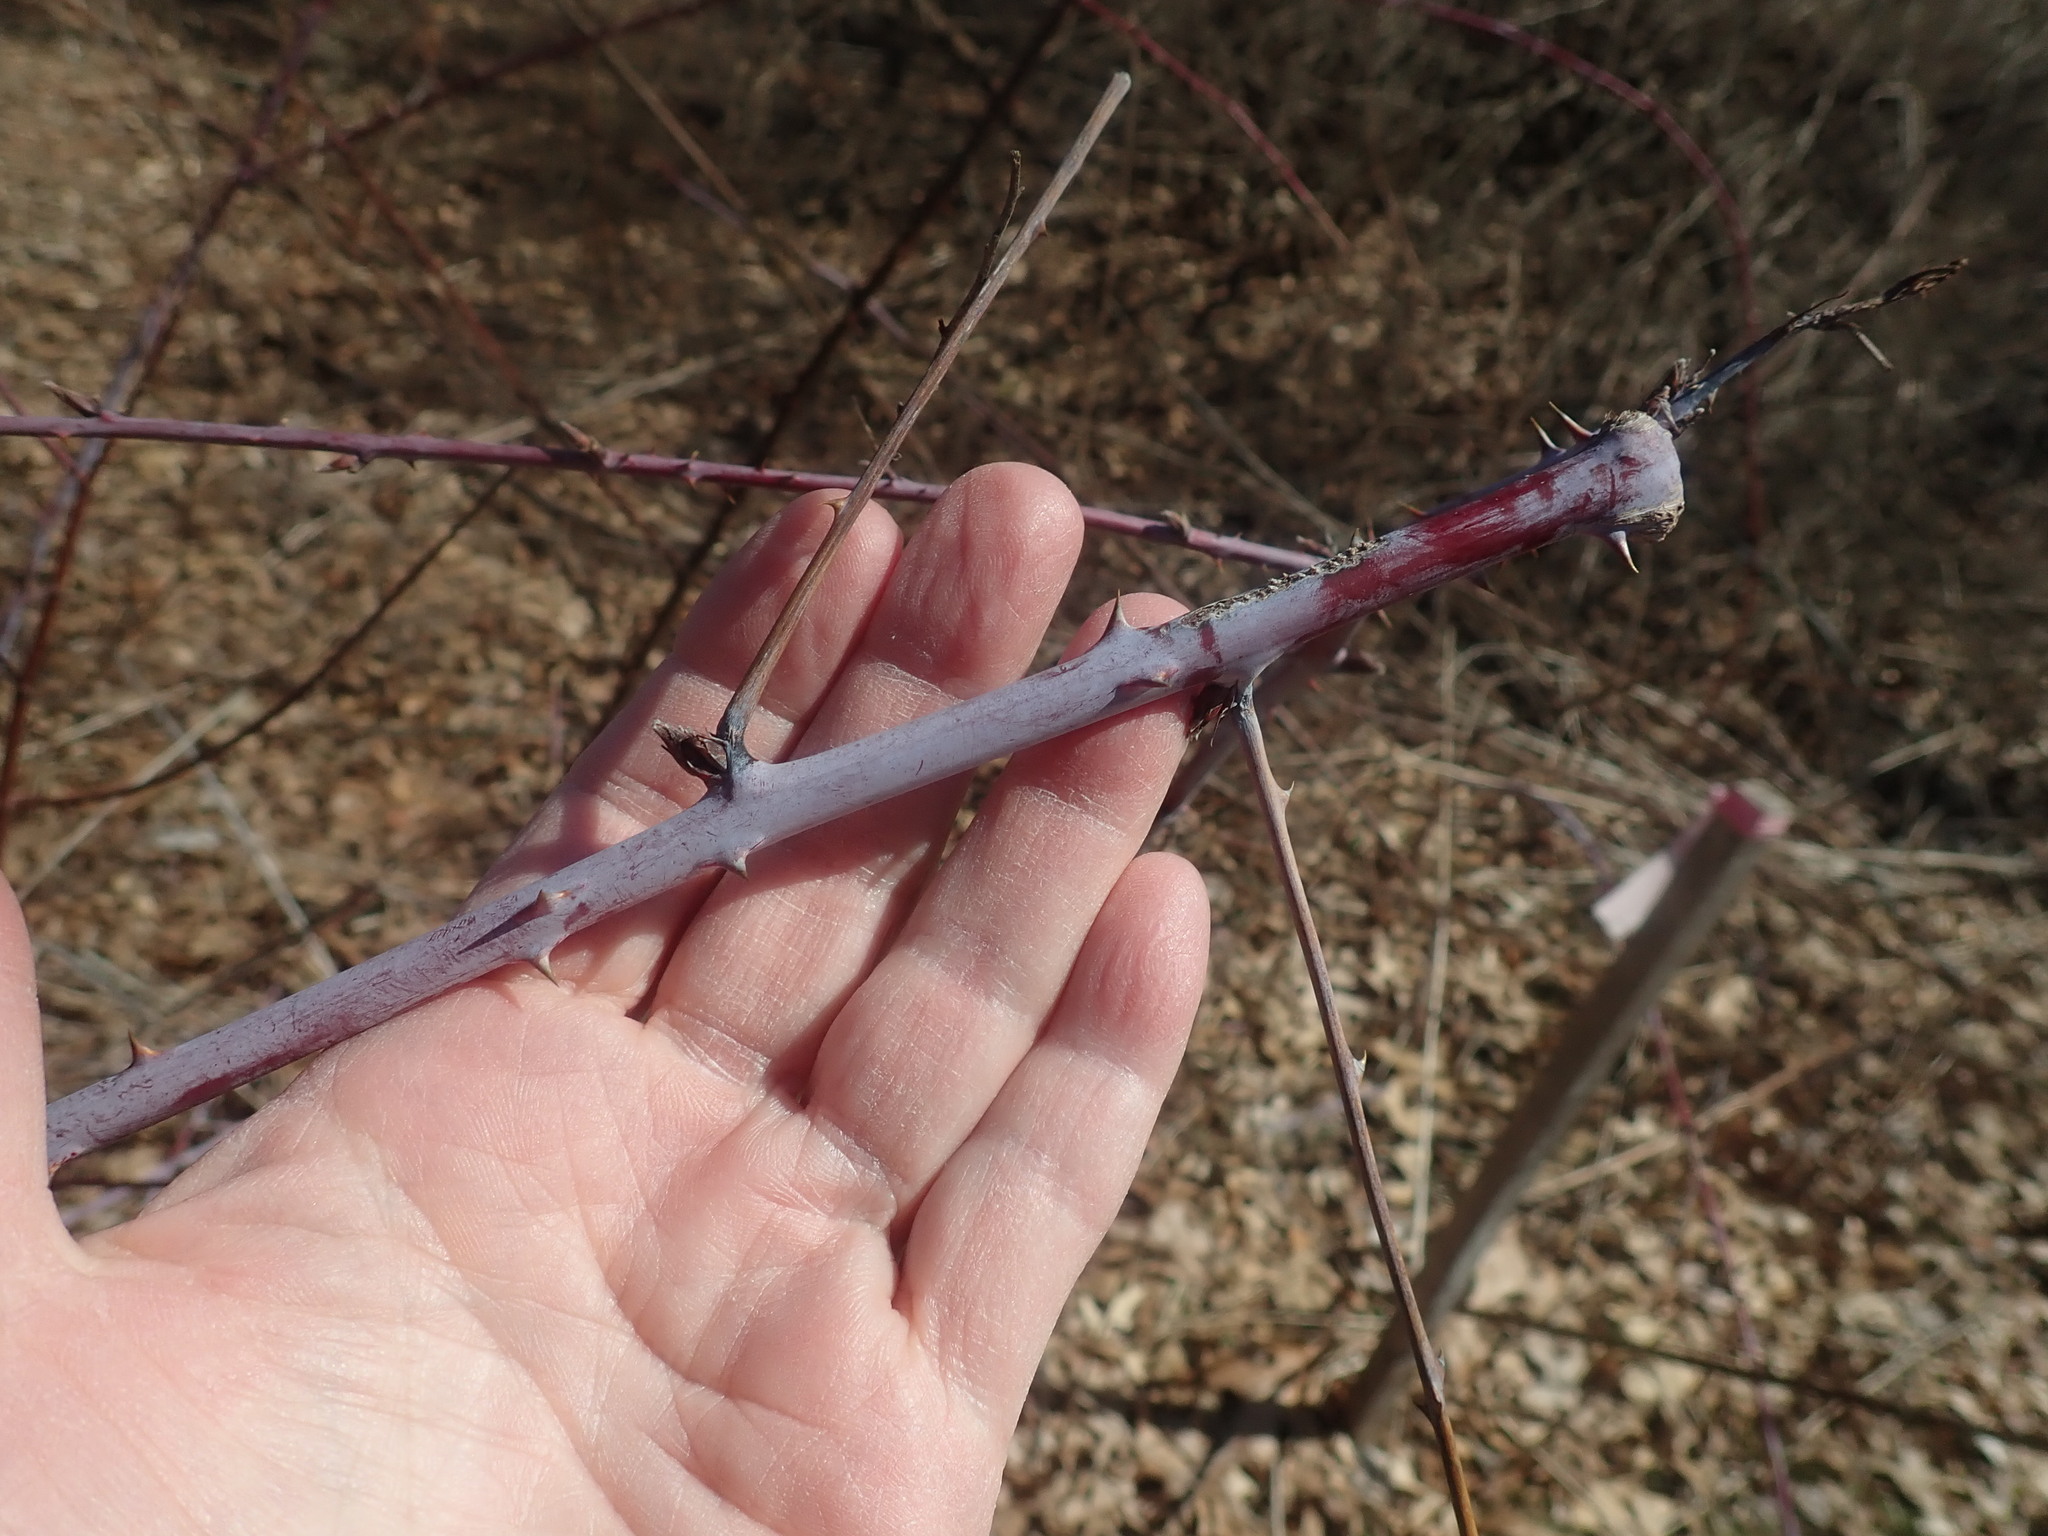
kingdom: Plantae
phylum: Tracheophyta
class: Magnoliopsida
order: Rosales
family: Rosaceae
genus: Rubus
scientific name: Rubus occidentalis
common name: Black raspberry
